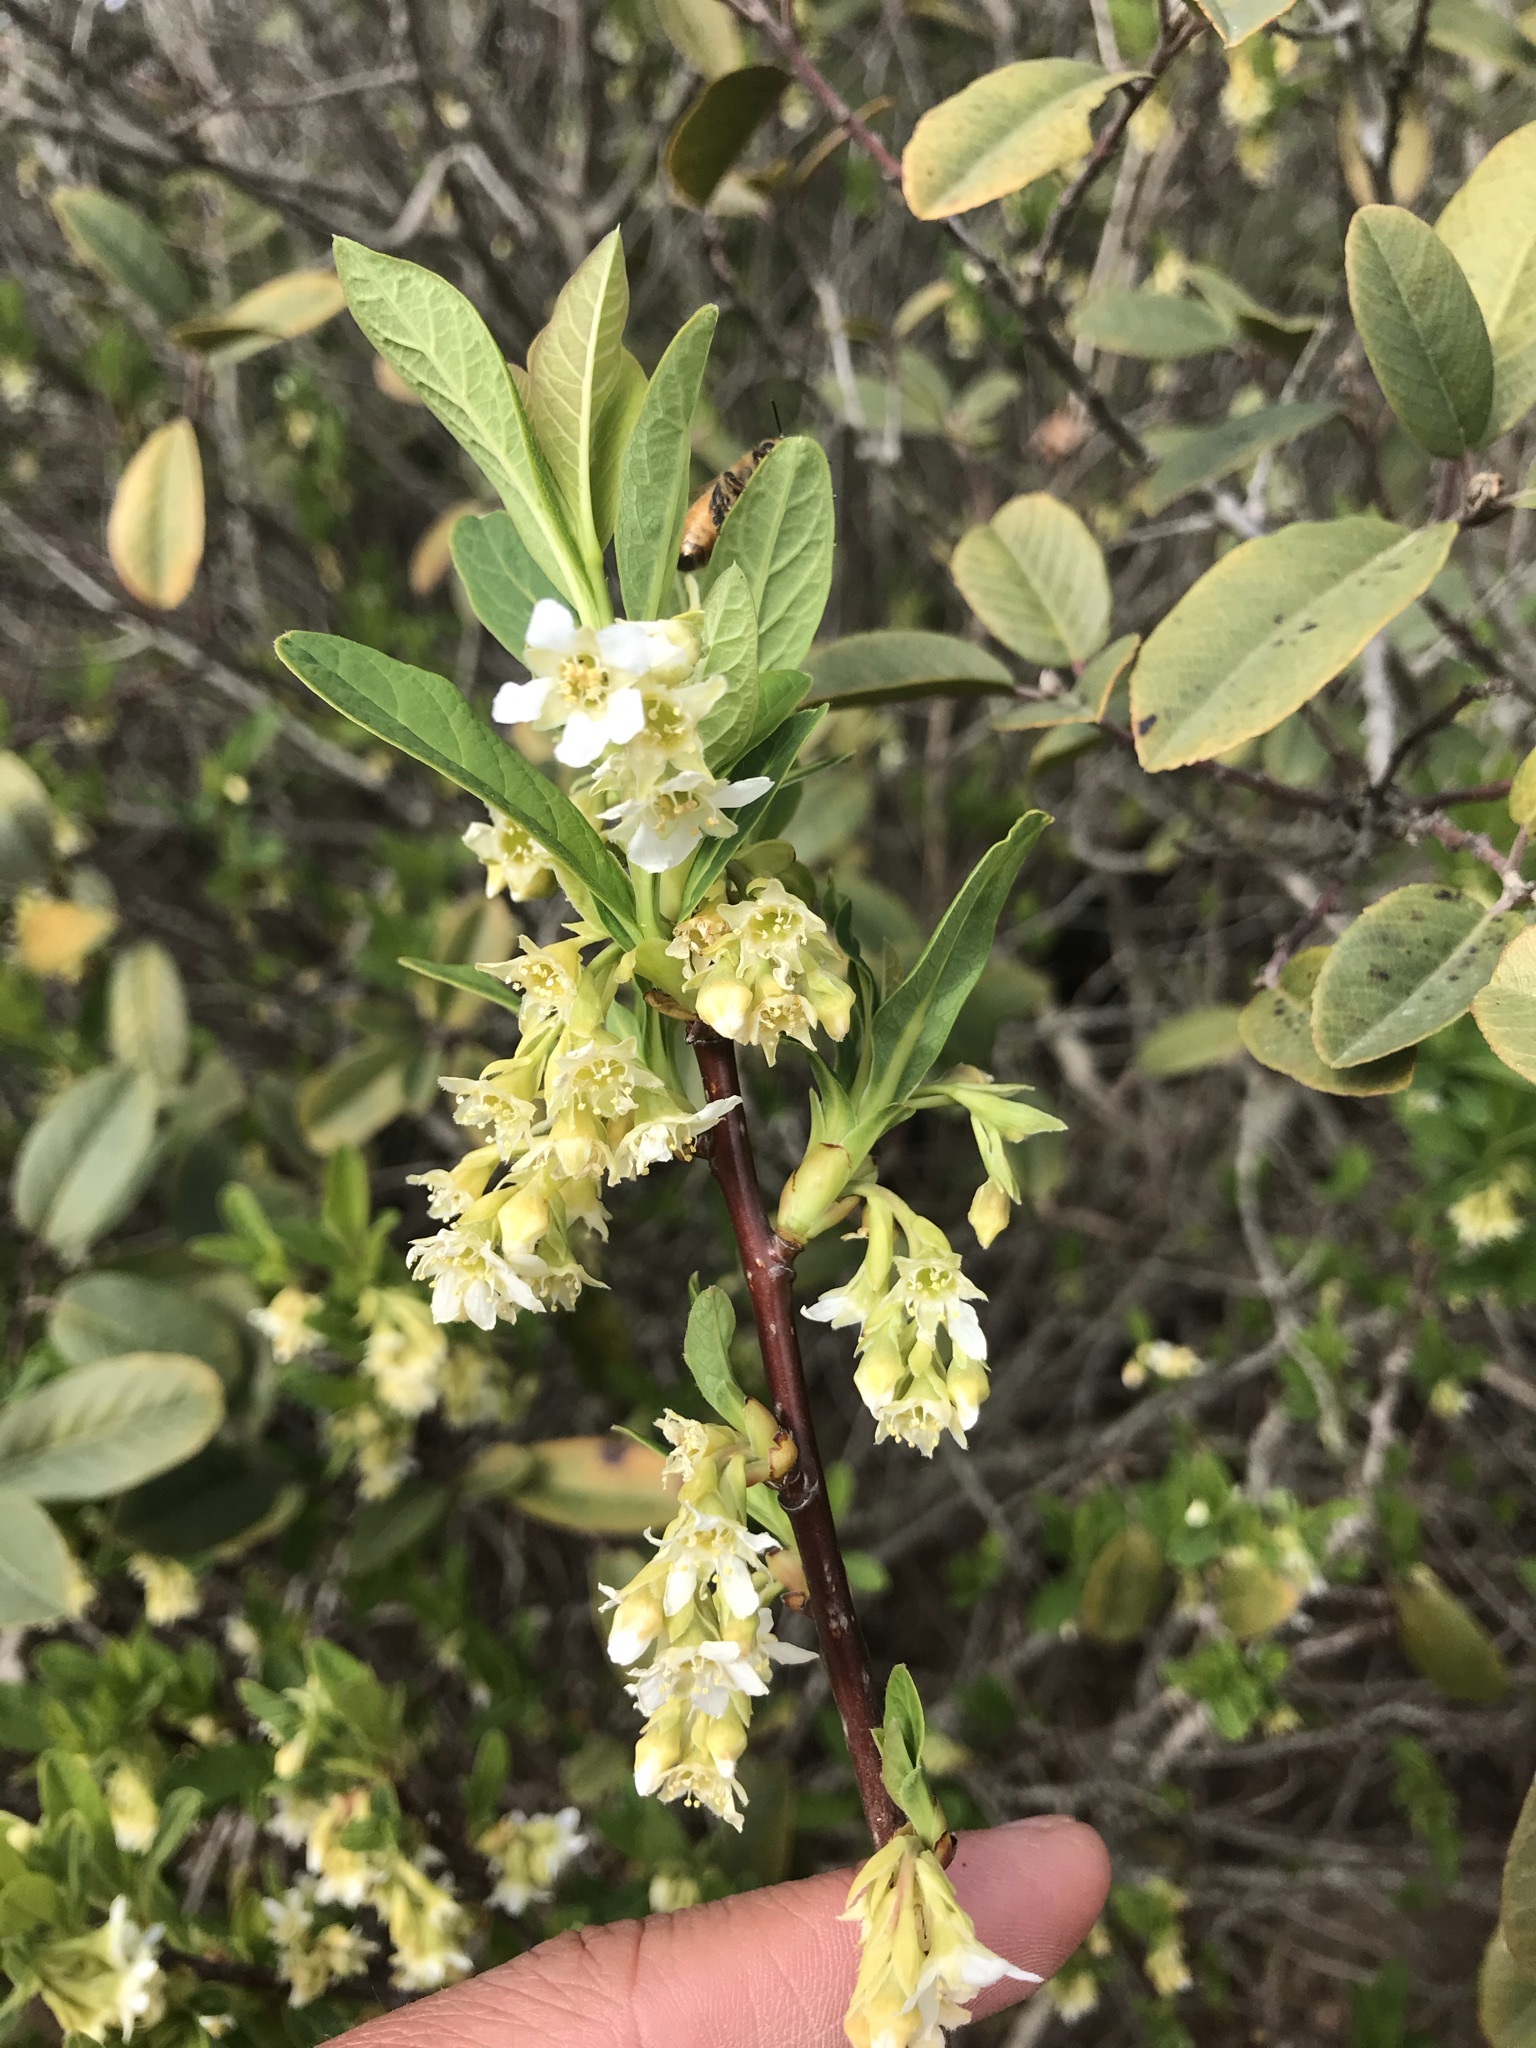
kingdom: Plantae
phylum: Tracheophyta
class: Magnoliopsida
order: Rosales
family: Rosaceae
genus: Oemleria
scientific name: Oemleria cerasiformis
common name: Osoberry
